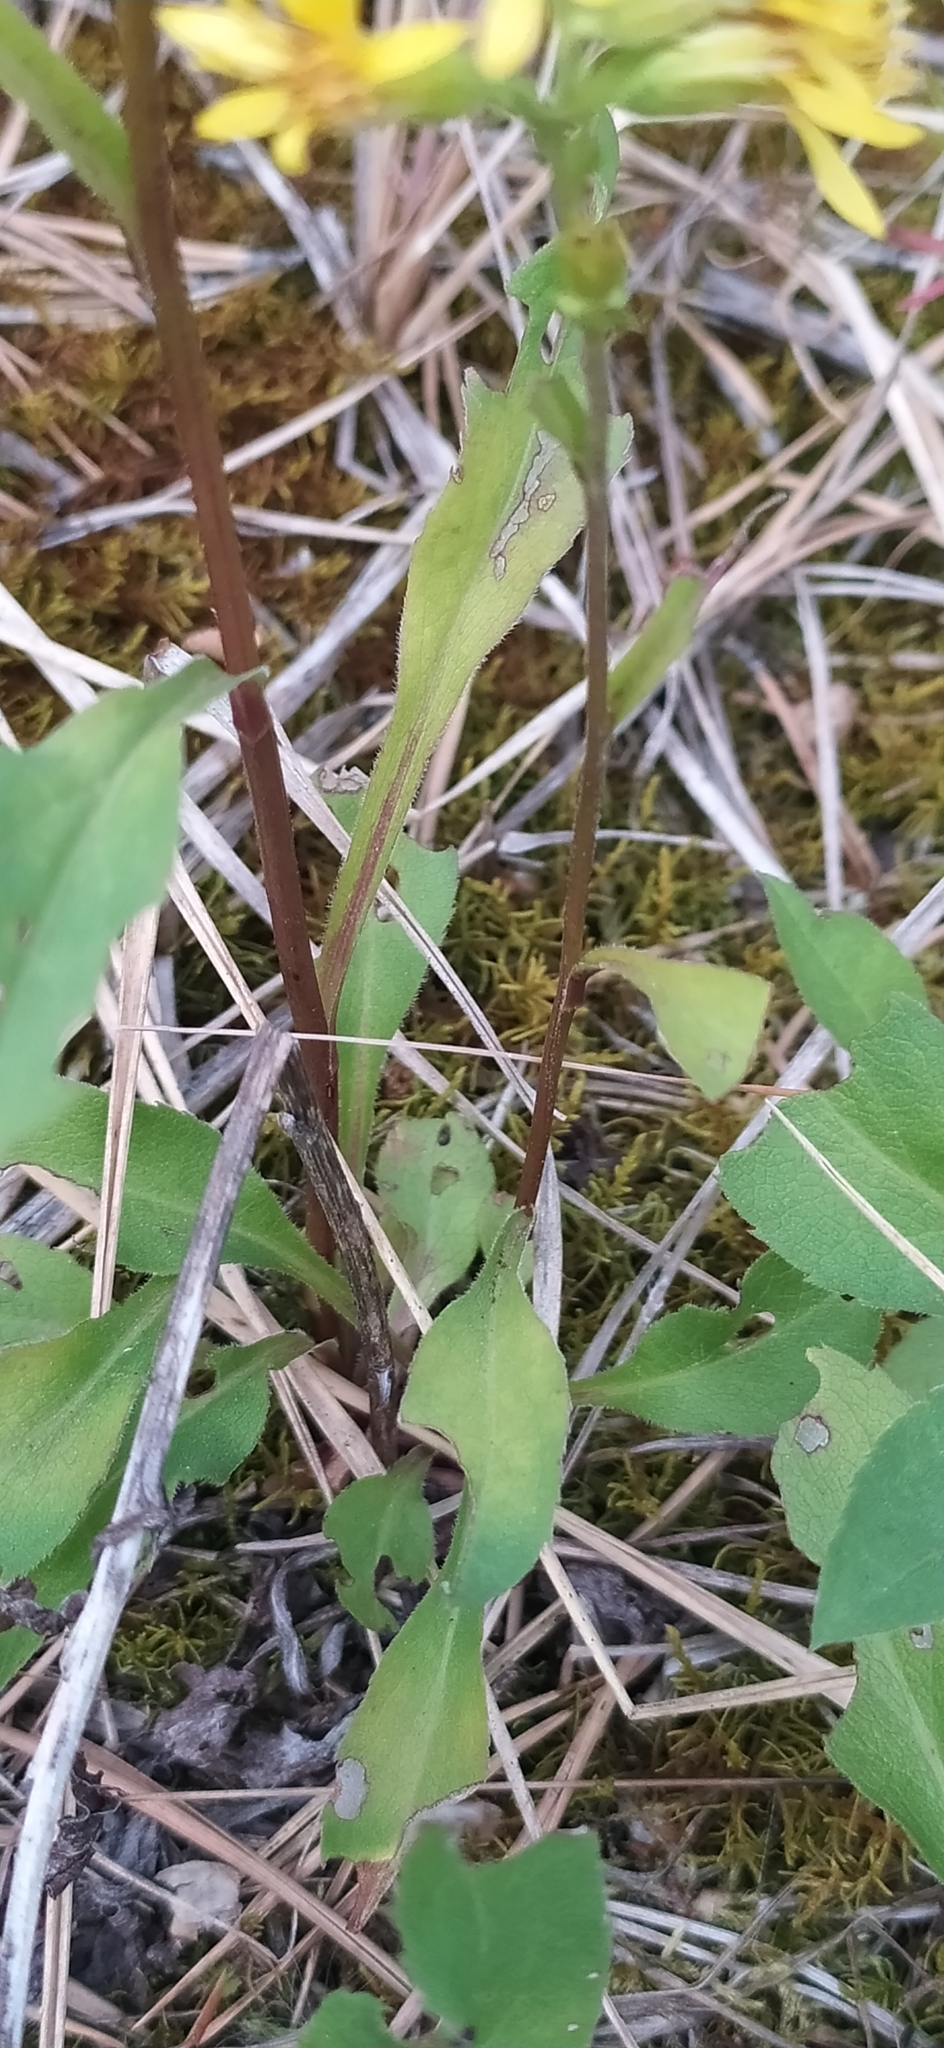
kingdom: Plantae
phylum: Tracheophyta
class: Magnoliopsida
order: Asterales
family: Asteraceae
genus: Solidago
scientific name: Solidago virgaurea
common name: Goldenrod
